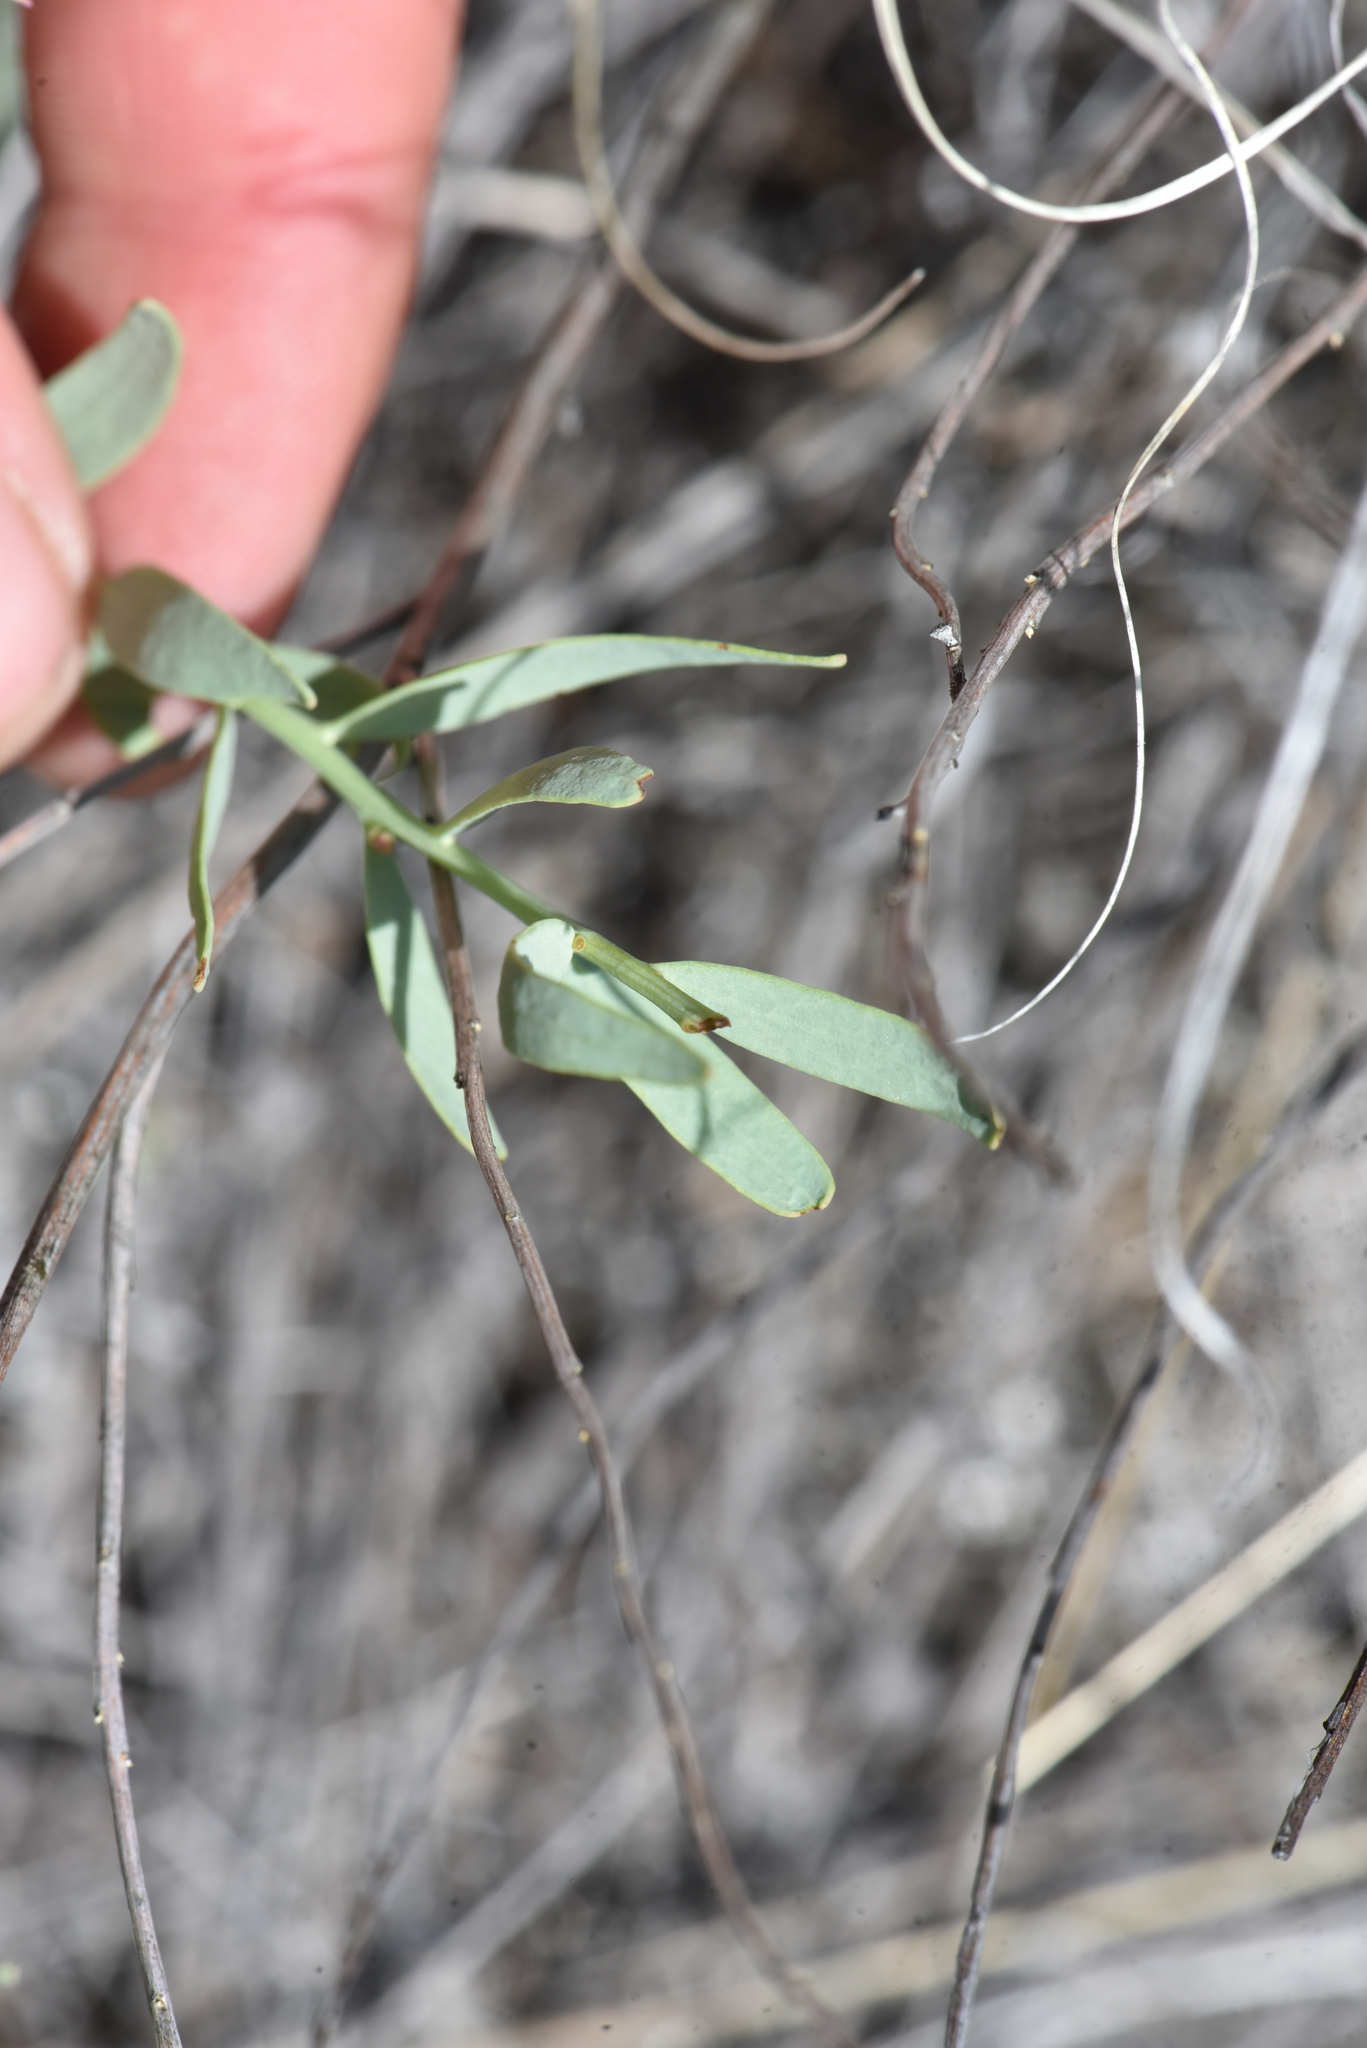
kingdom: Plantae
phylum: Tracheophyta
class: Magnoliopsida
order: Santalales
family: Comandraceae
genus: Comandra
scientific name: Comandra umbellata
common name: Bastard toadflax
